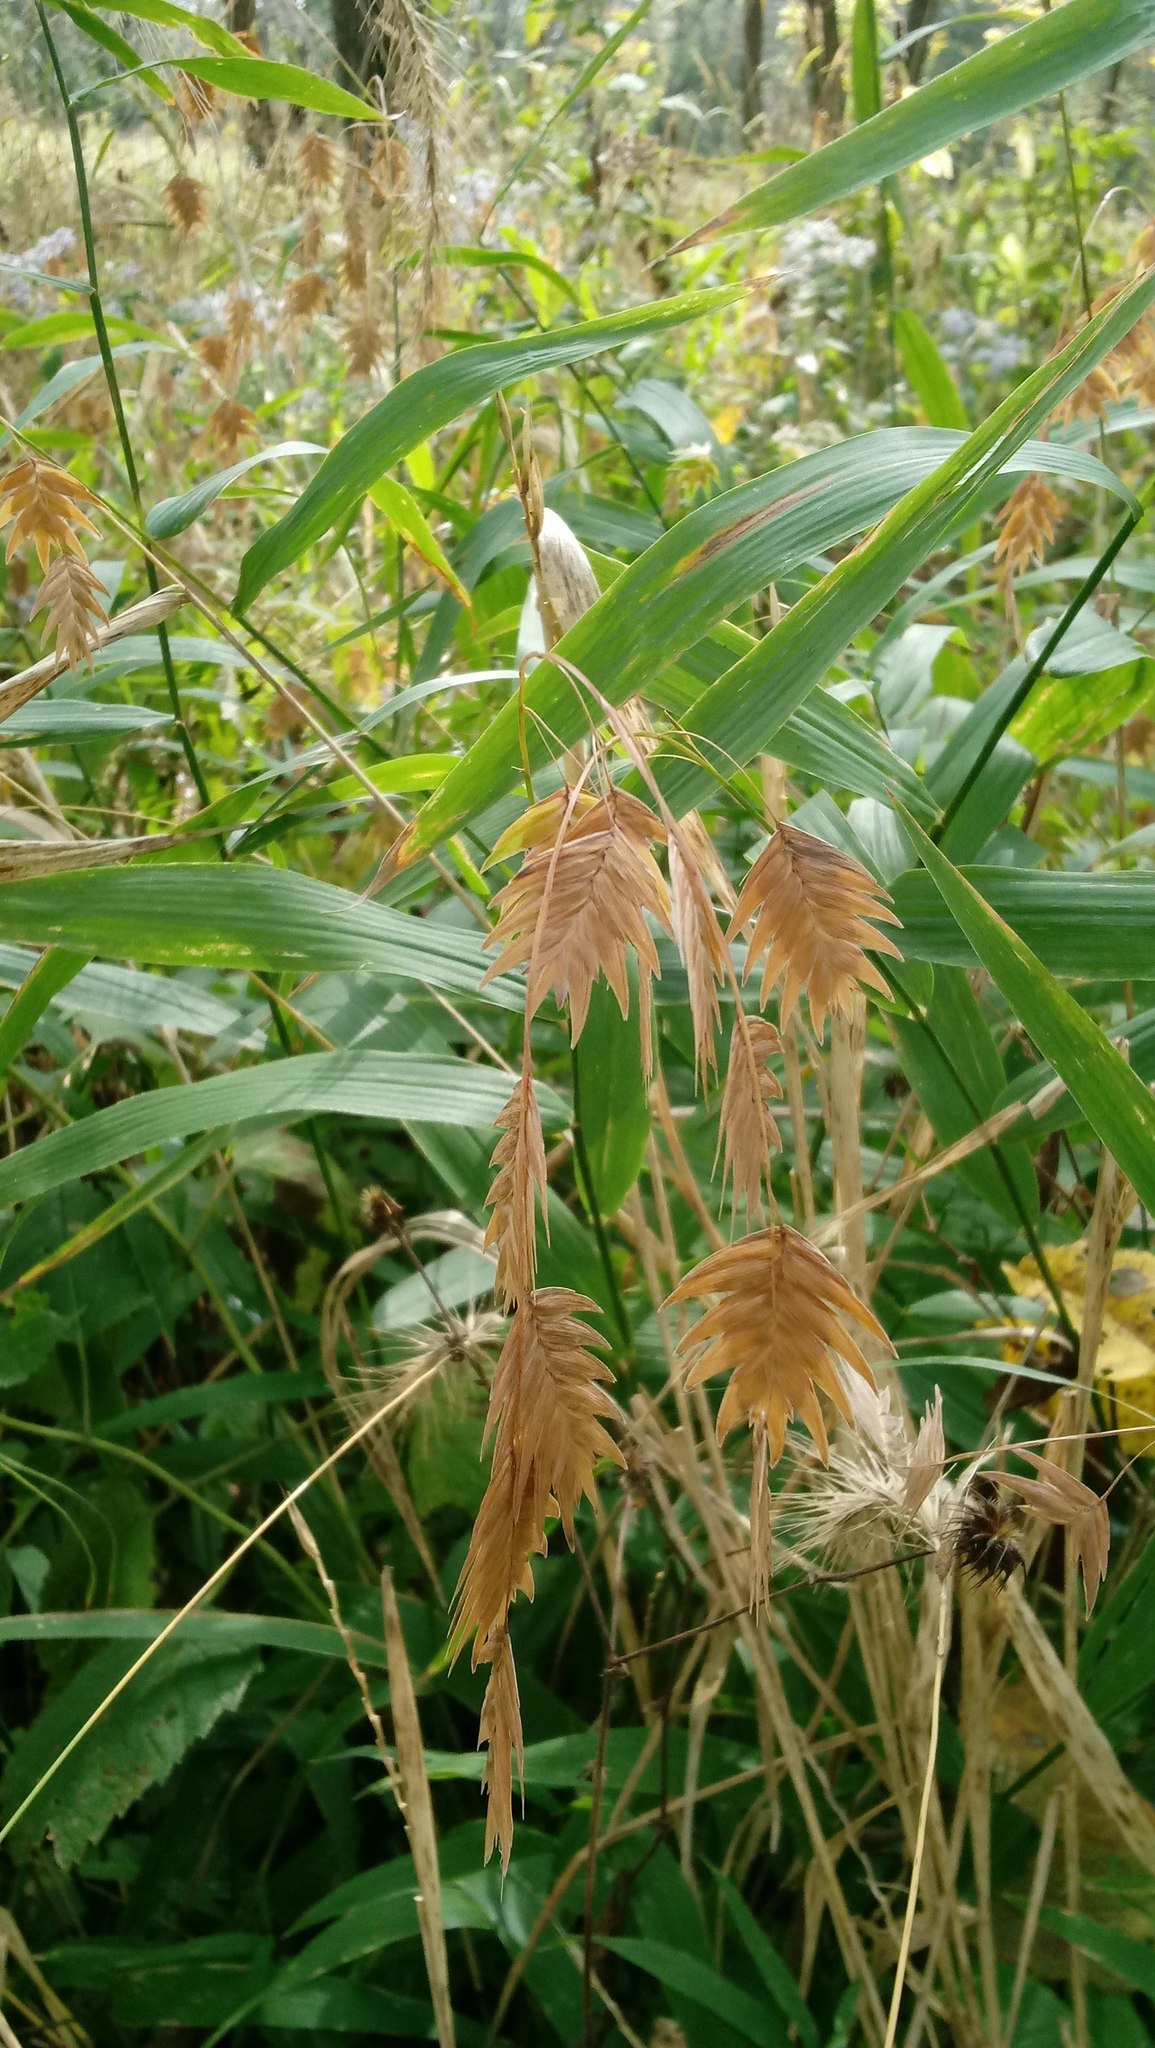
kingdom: Plantae
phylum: Tracheophyta
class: Liliopsida
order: Poales
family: Poaceae
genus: Chasmanthium
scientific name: Chasmanthium latifolium
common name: Broad-leaved chasmanthium
